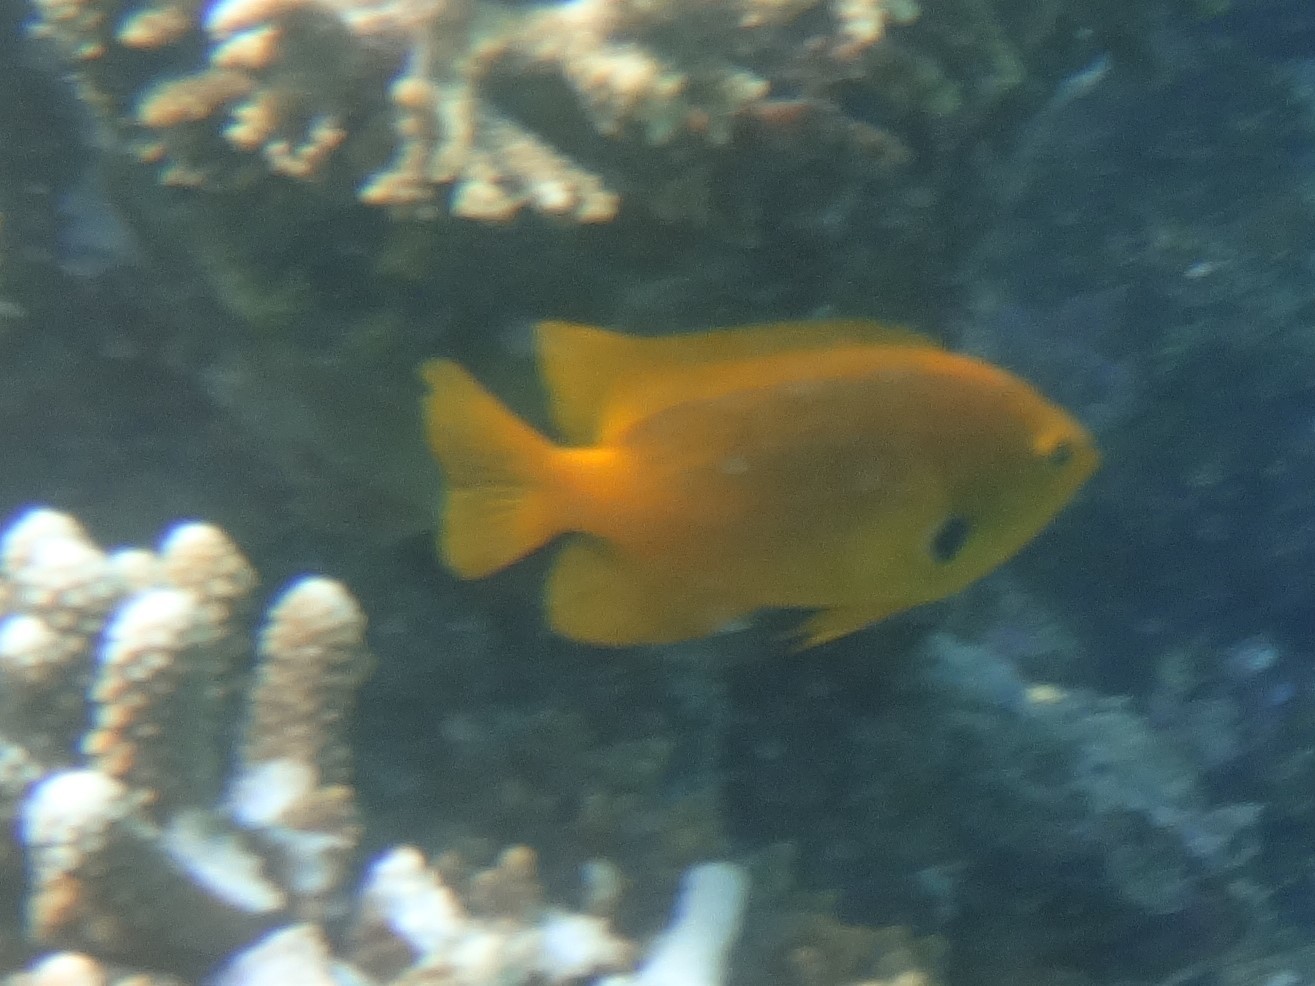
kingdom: Animalia
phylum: Chordata
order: Perciformes
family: Pomacentridae
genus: Pomacentrus
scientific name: Pomacentrus sulfureus
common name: Sulfur damsel
